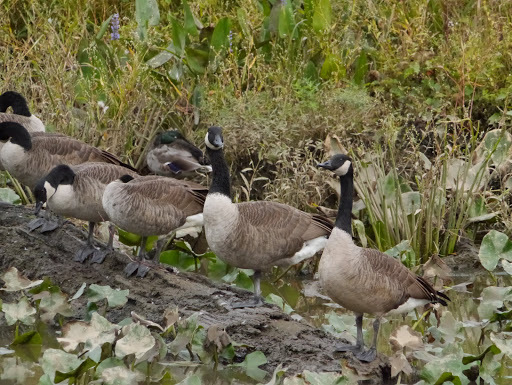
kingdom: Animalia
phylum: Chordata
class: Aves
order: Anseriformes
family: Anatidae
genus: Branta
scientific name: Branta canadensis
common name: Canada goose
